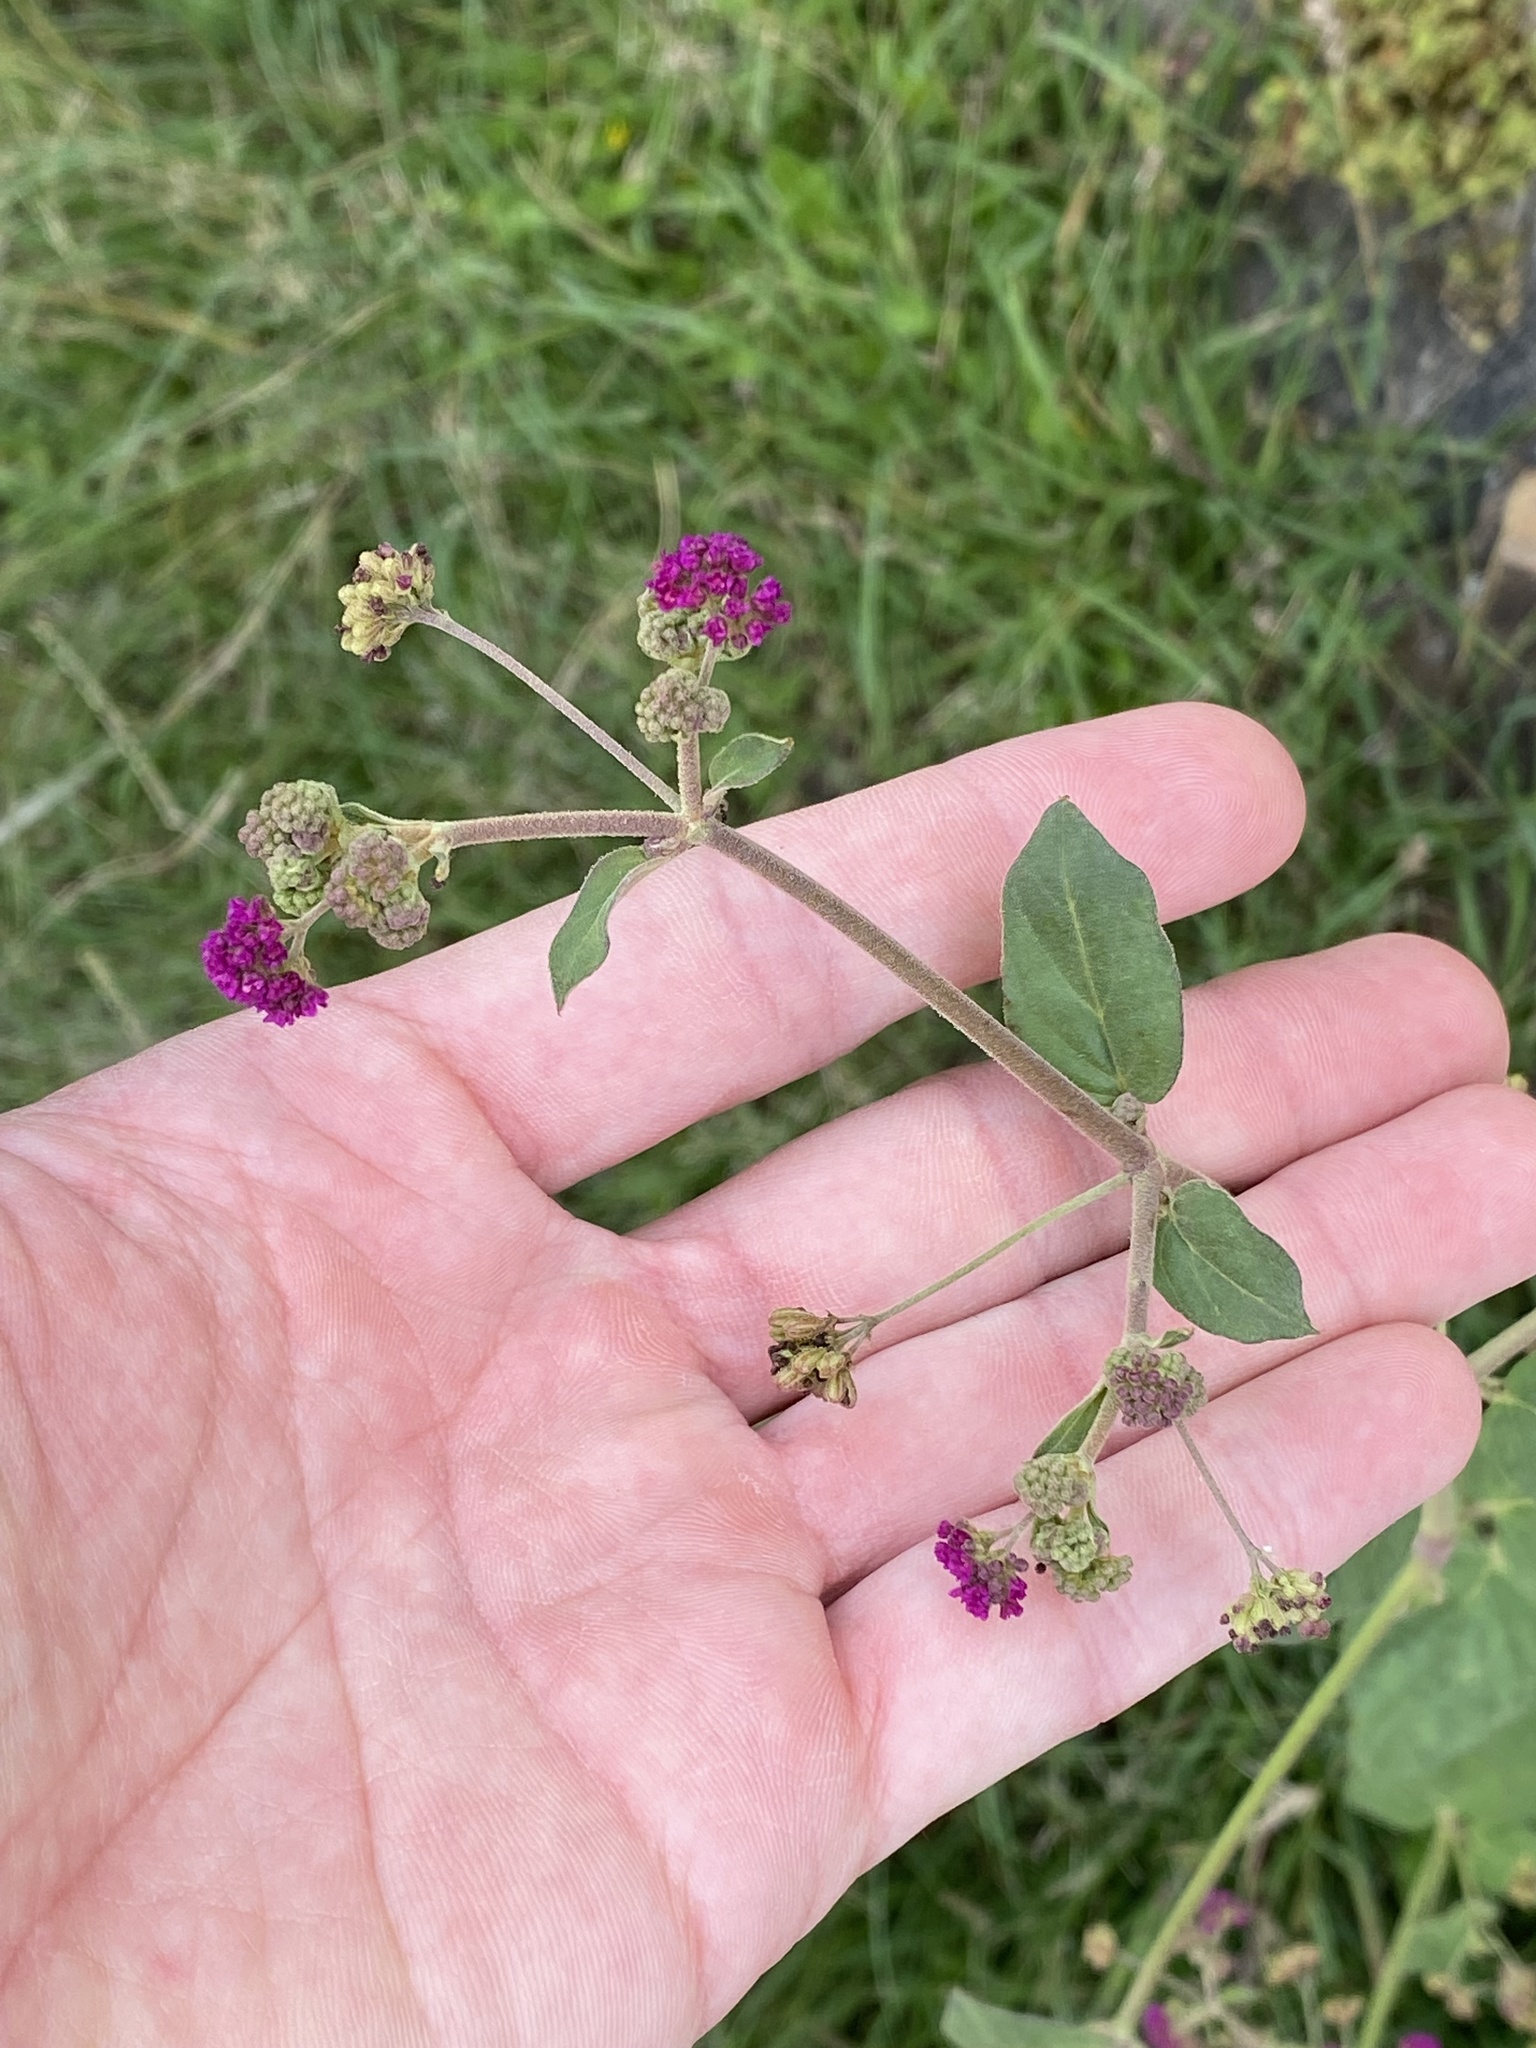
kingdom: Plantae
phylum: Tracheophyta
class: Magnoliopsida
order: Caryophyllales
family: Nyctaginaceae
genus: Boerhavia
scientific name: Boerhavia coccinea
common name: Scarlet spiderling
